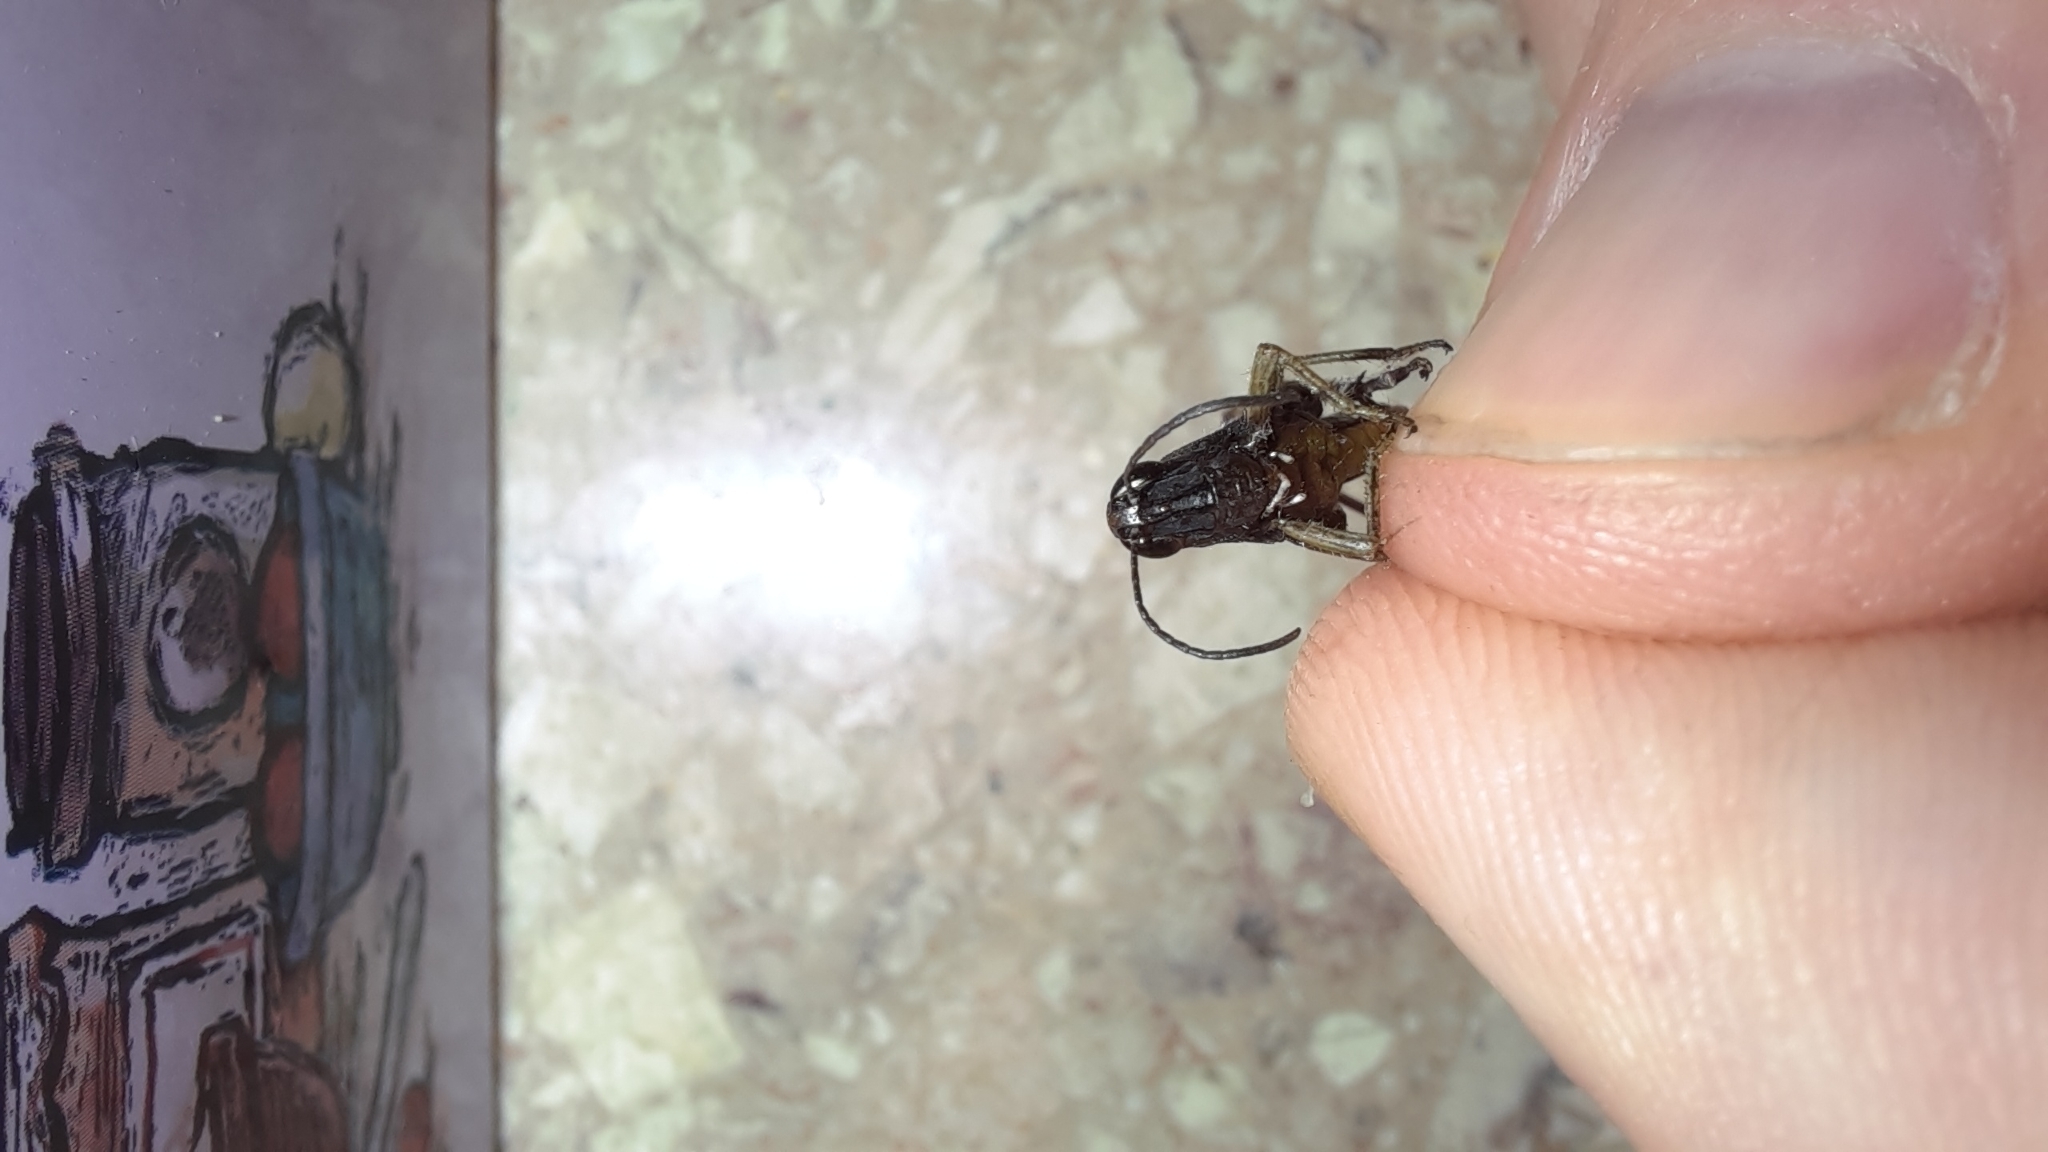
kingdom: Animalia
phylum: Arthropoda
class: Insecta
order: Orthoptera
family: Acrididae
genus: Omocestus
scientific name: Omocestus rufipes
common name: Woodland grasshopper
